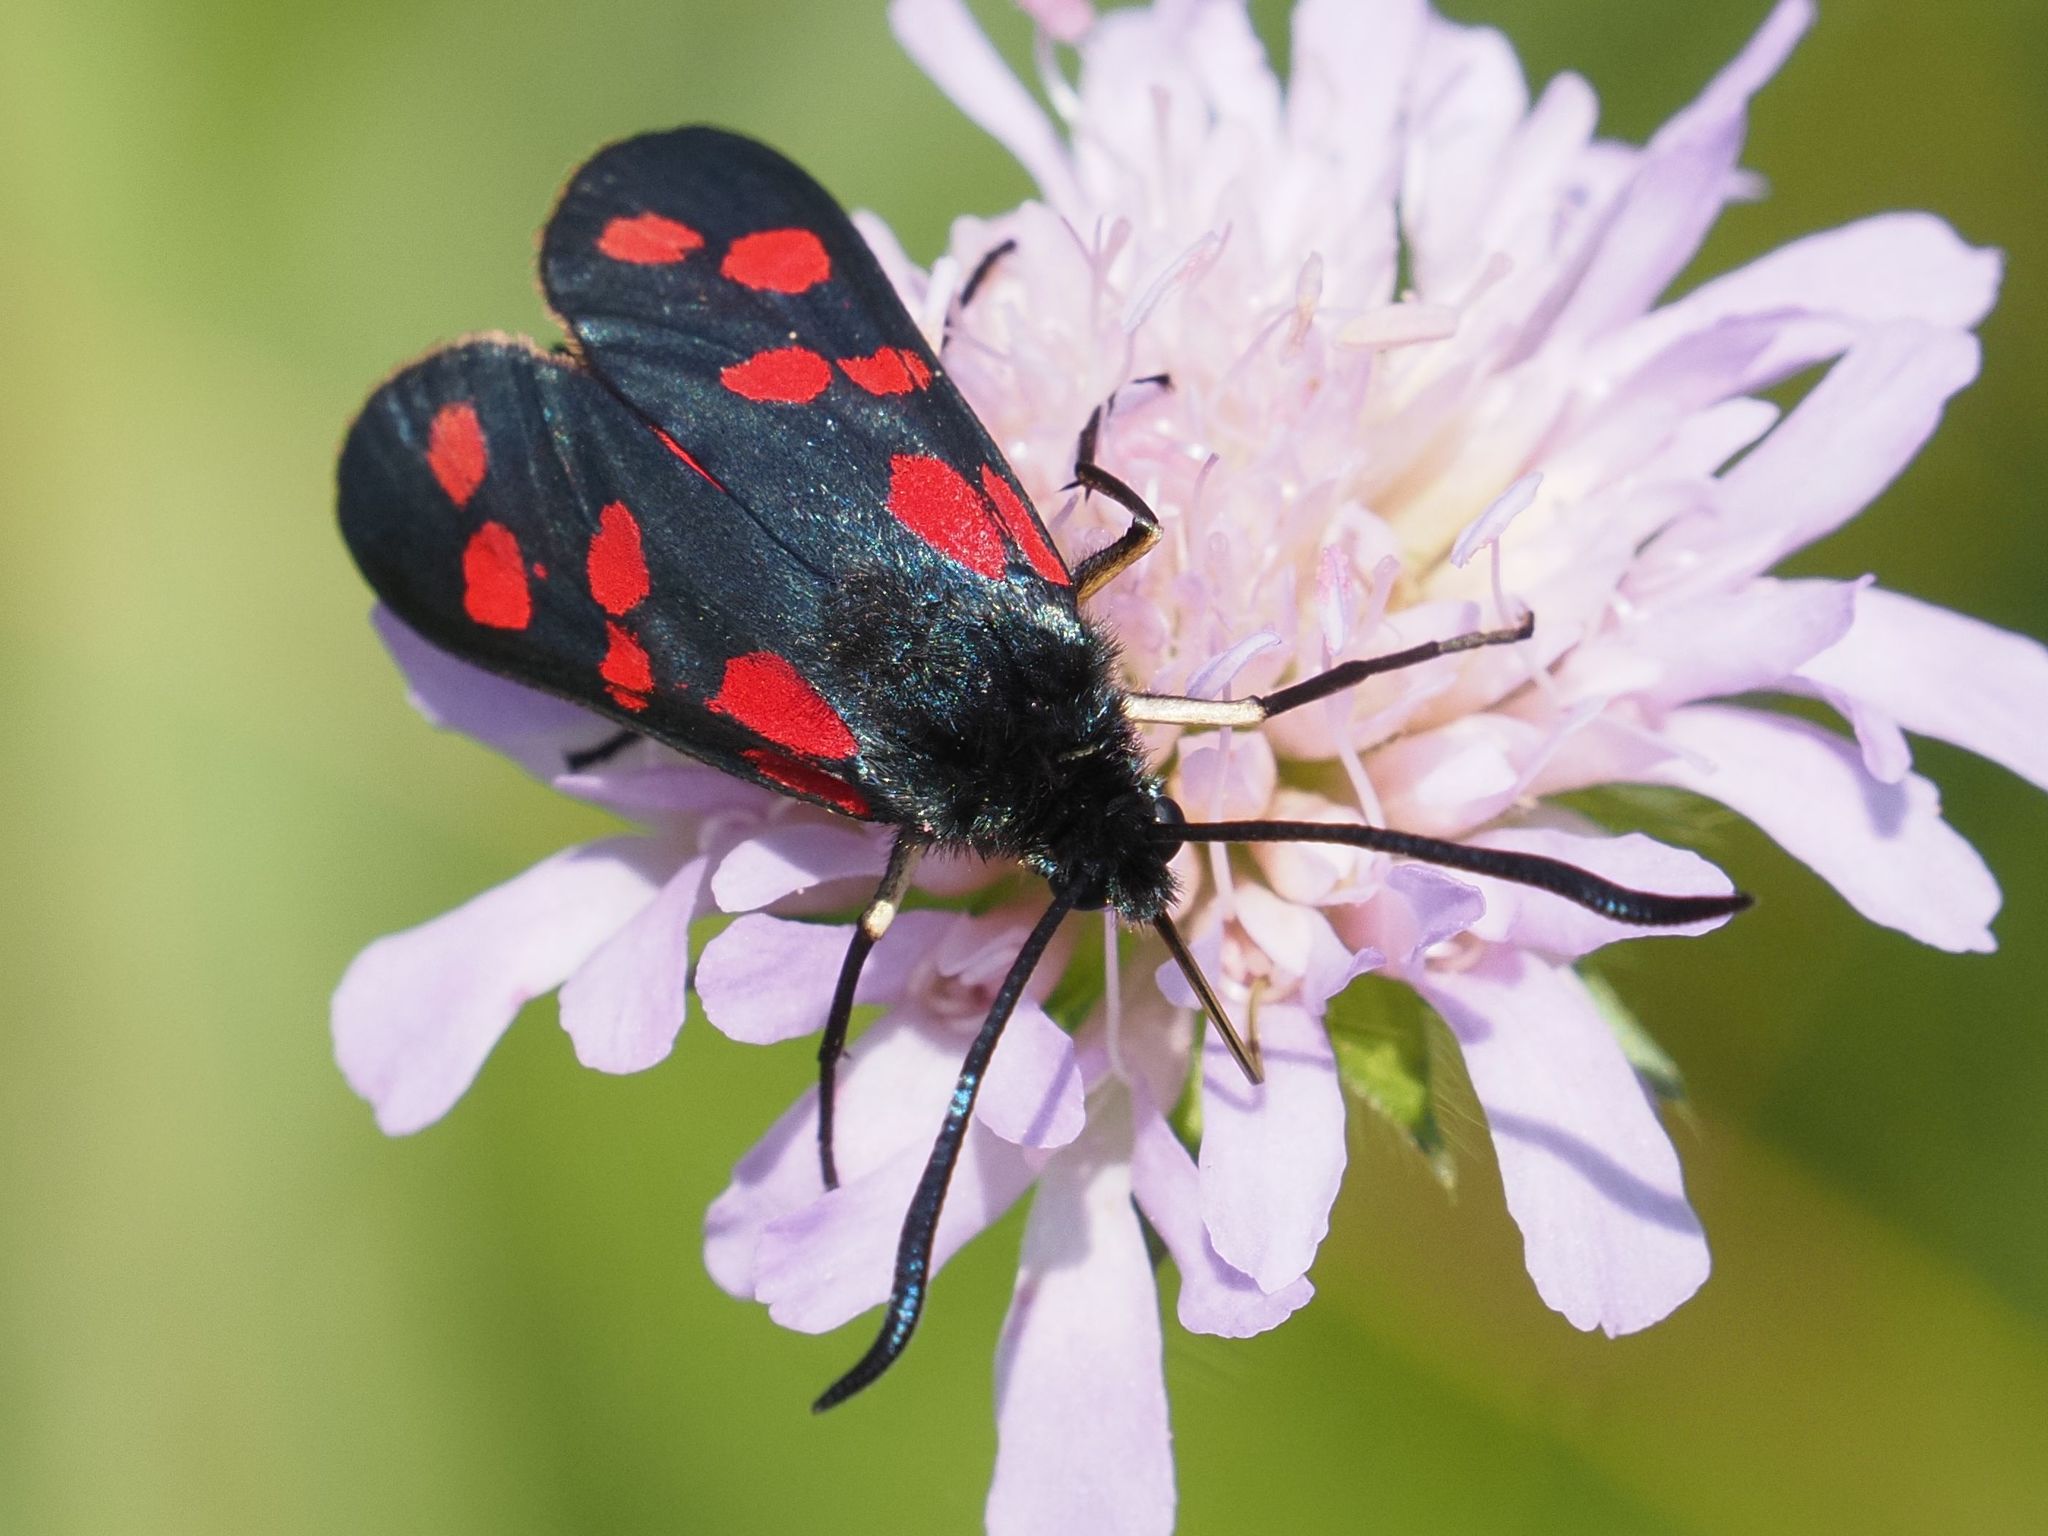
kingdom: Animalia
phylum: Arthropoda
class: Insecta
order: Lepidoptera
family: Zygaenidae
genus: Zygaena
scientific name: Zygaena filipendulae
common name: Six-spot burnet
